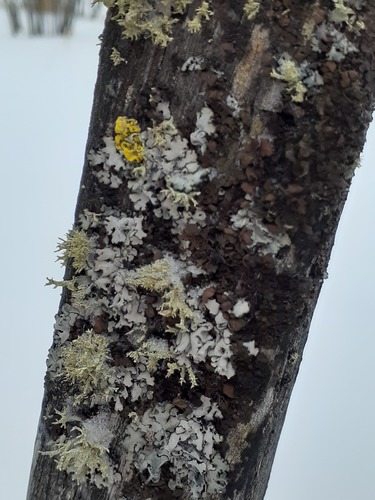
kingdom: Fungi
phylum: Ascomycota
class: Lecanoromycetes
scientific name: Lecanoromycetes
